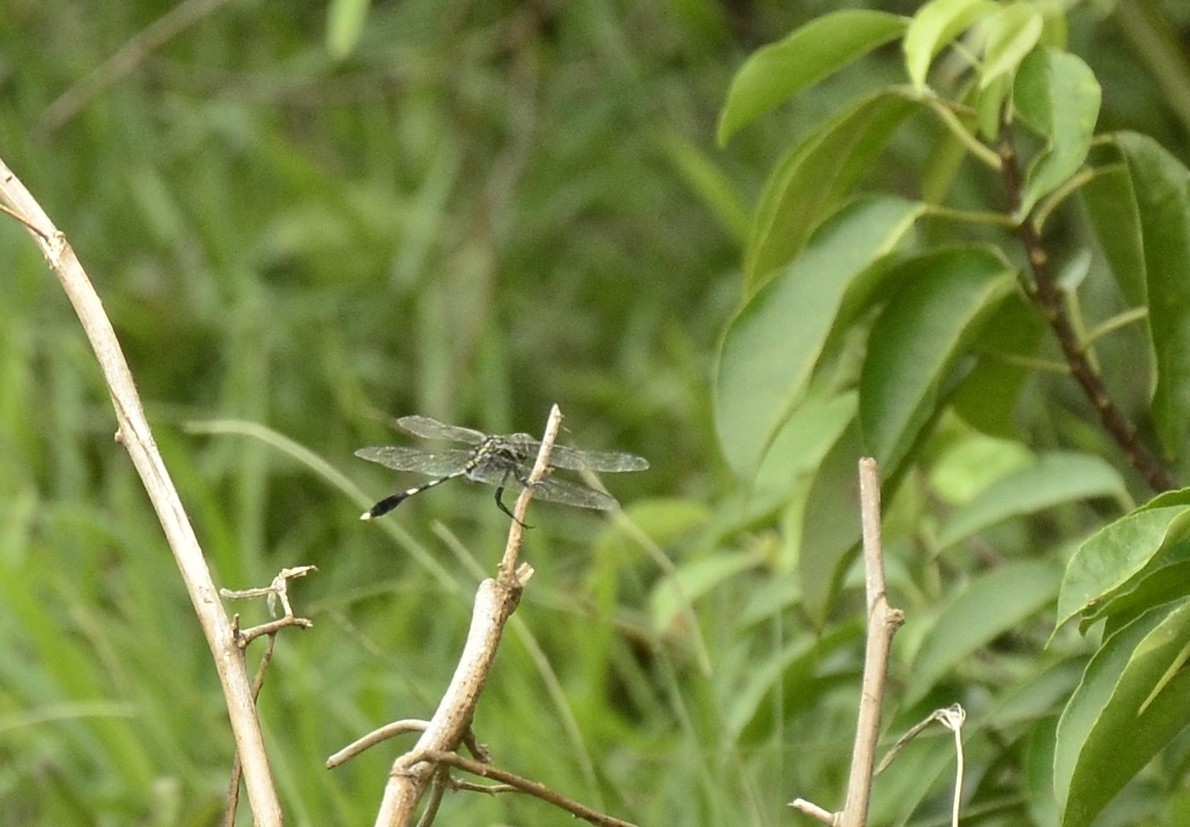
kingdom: Animalia
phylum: Arthropoda
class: Insecta
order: Odonata
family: Libellulidae
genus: Orthetrum
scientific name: Orthetrum sabina
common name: Slender skimmer
